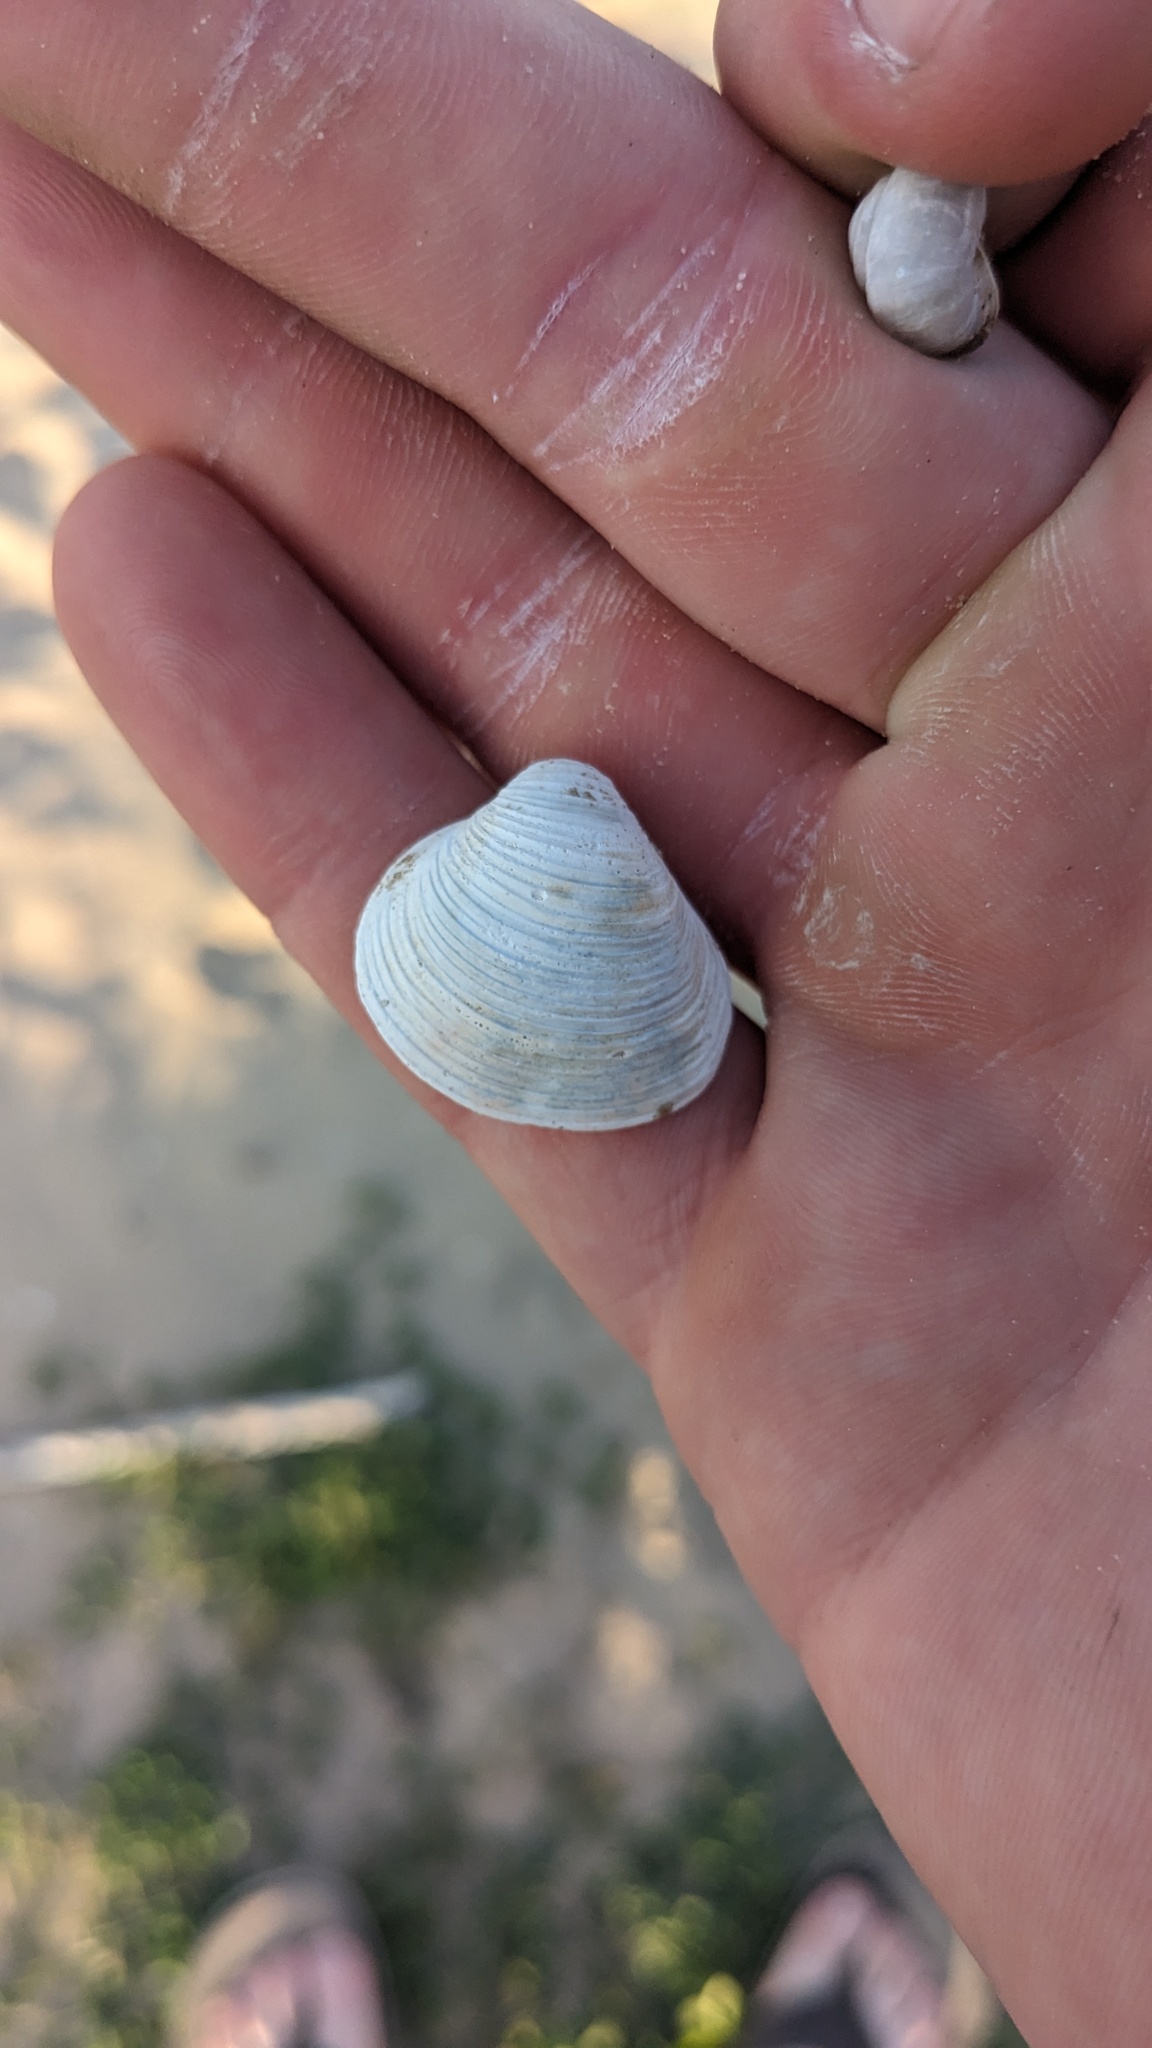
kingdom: Animalia
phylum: Mollusca
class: Bivalvia
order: Venerida
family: Cyrenidae
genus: Corbicula
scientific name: Corbicula fluminea
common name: Asian clam
